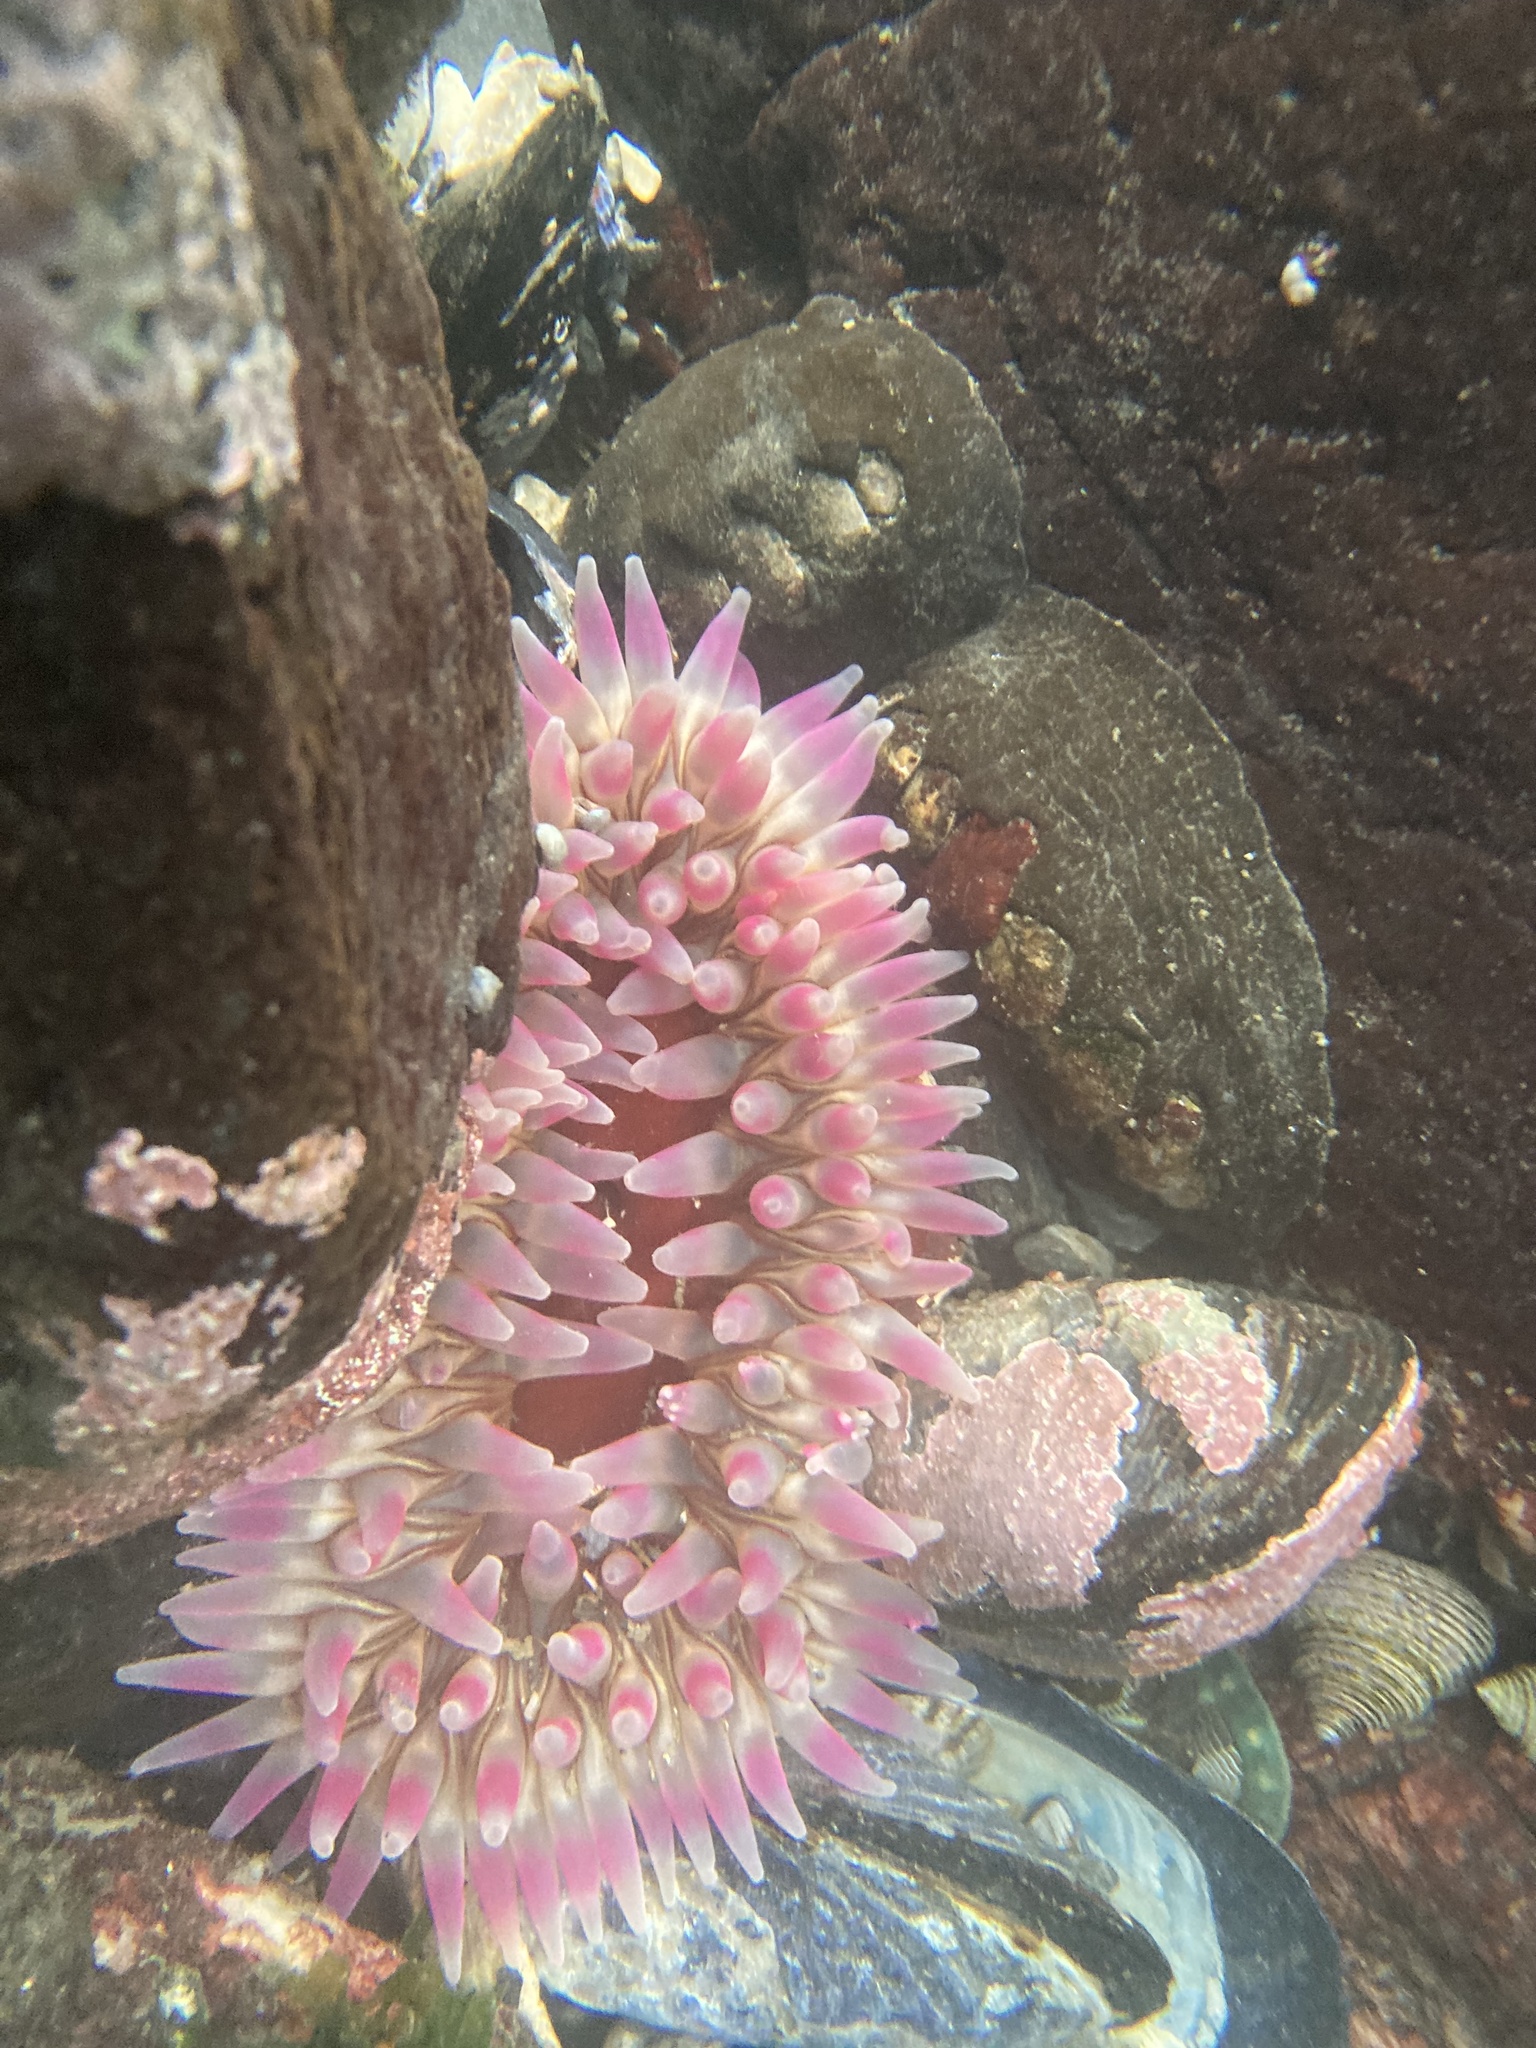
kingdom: Animalia
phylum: Cnidaria
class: Anthozoa
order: Actiniaria
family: Actiniidae
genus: Urticina
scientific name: Urticina clandestina
